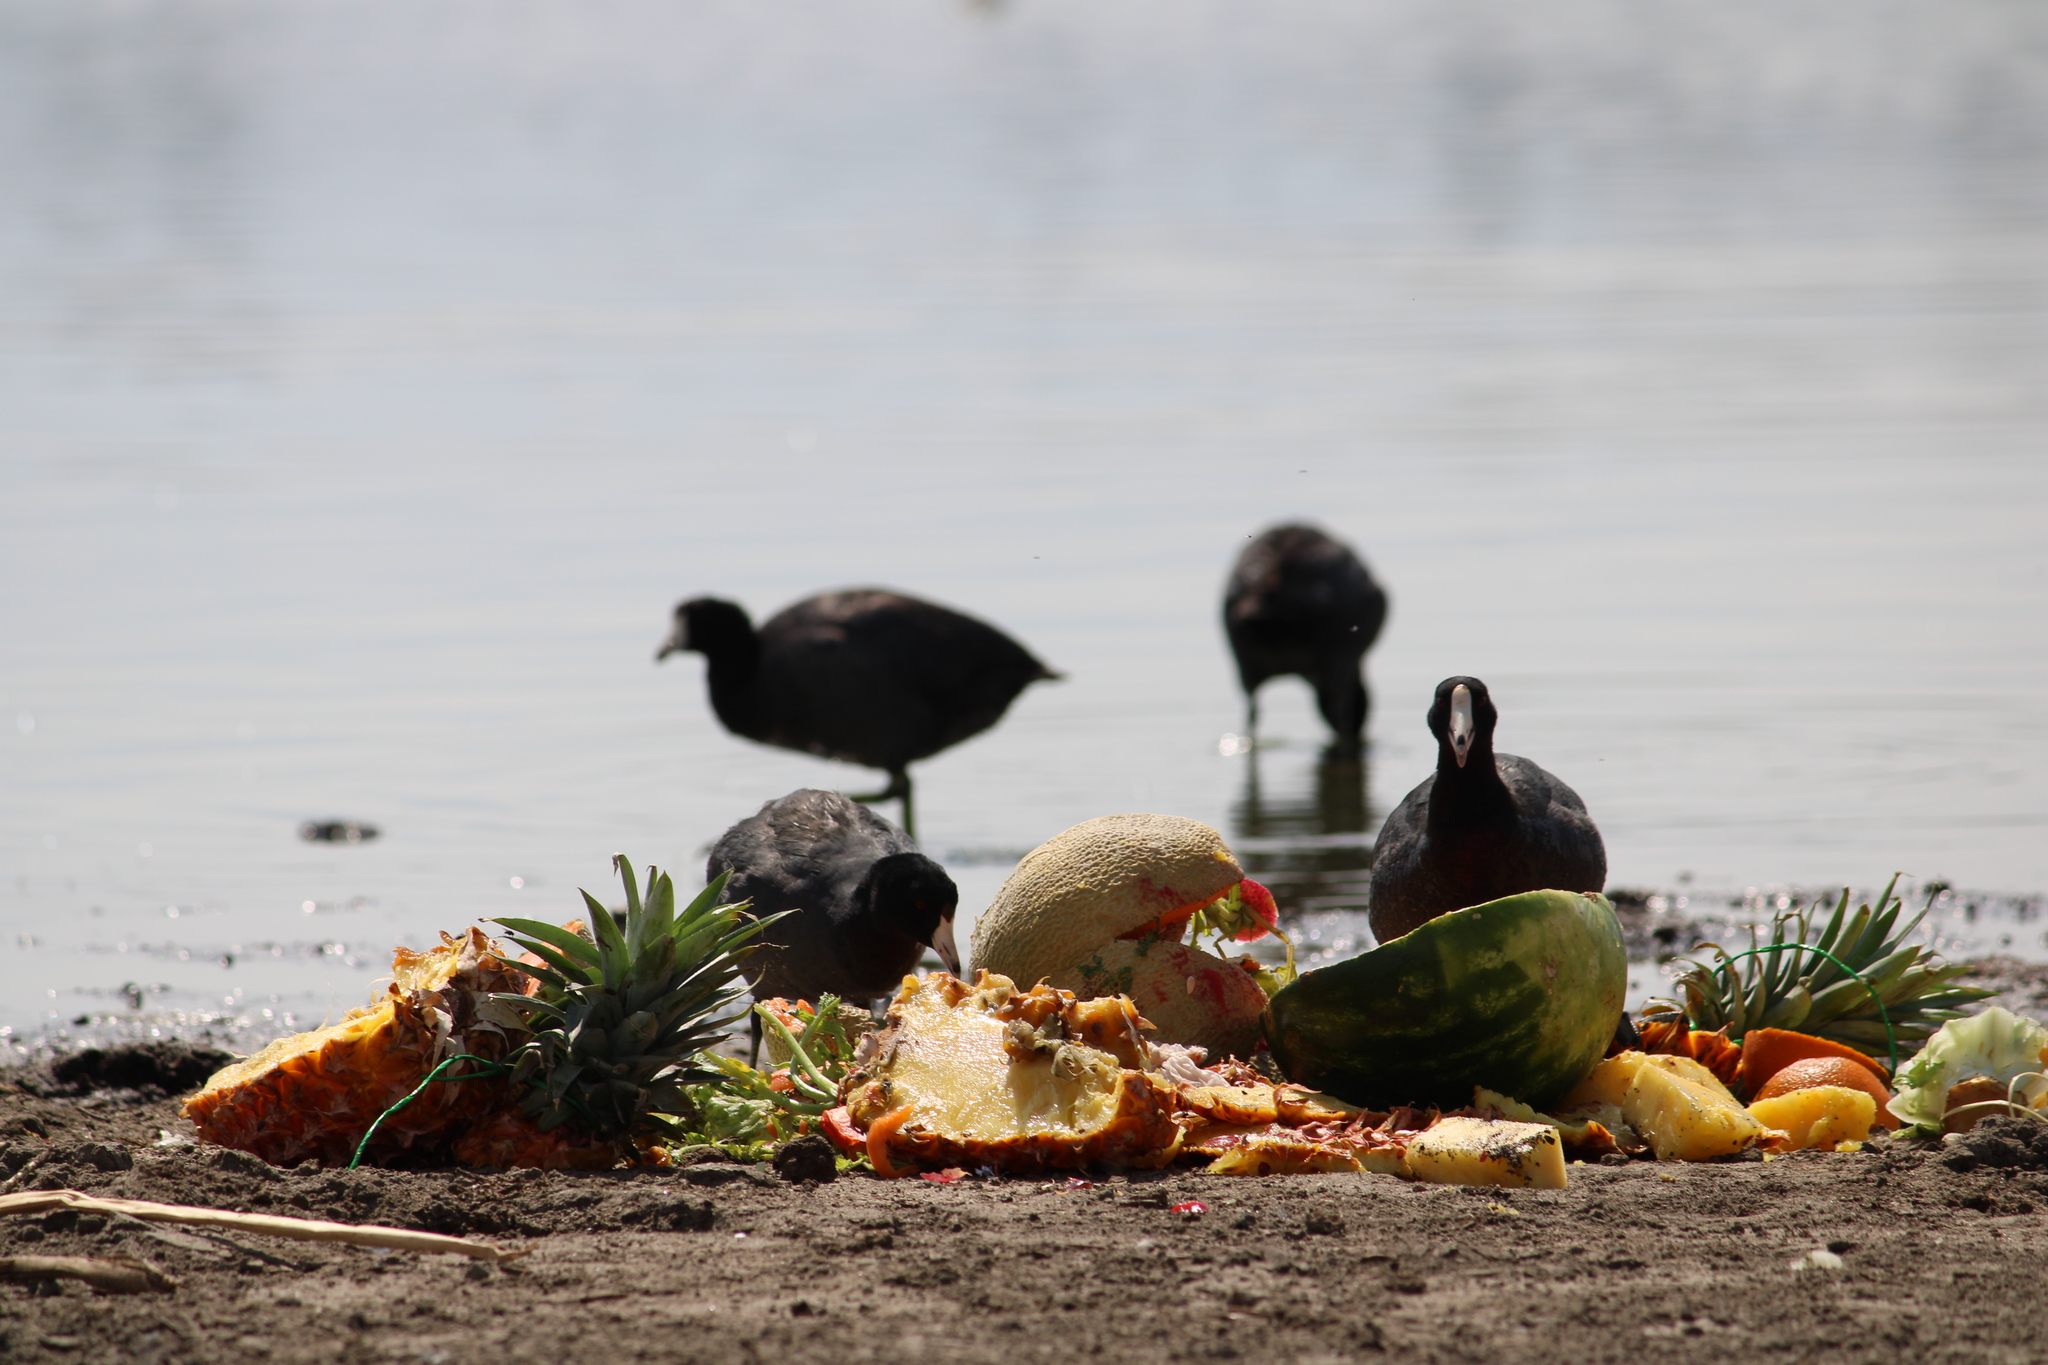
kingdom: Animalia
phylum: Chordata
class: Aves
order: Gruiformes
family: Rallidae
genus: Fulica
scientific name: Fulica americana
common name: American coot
